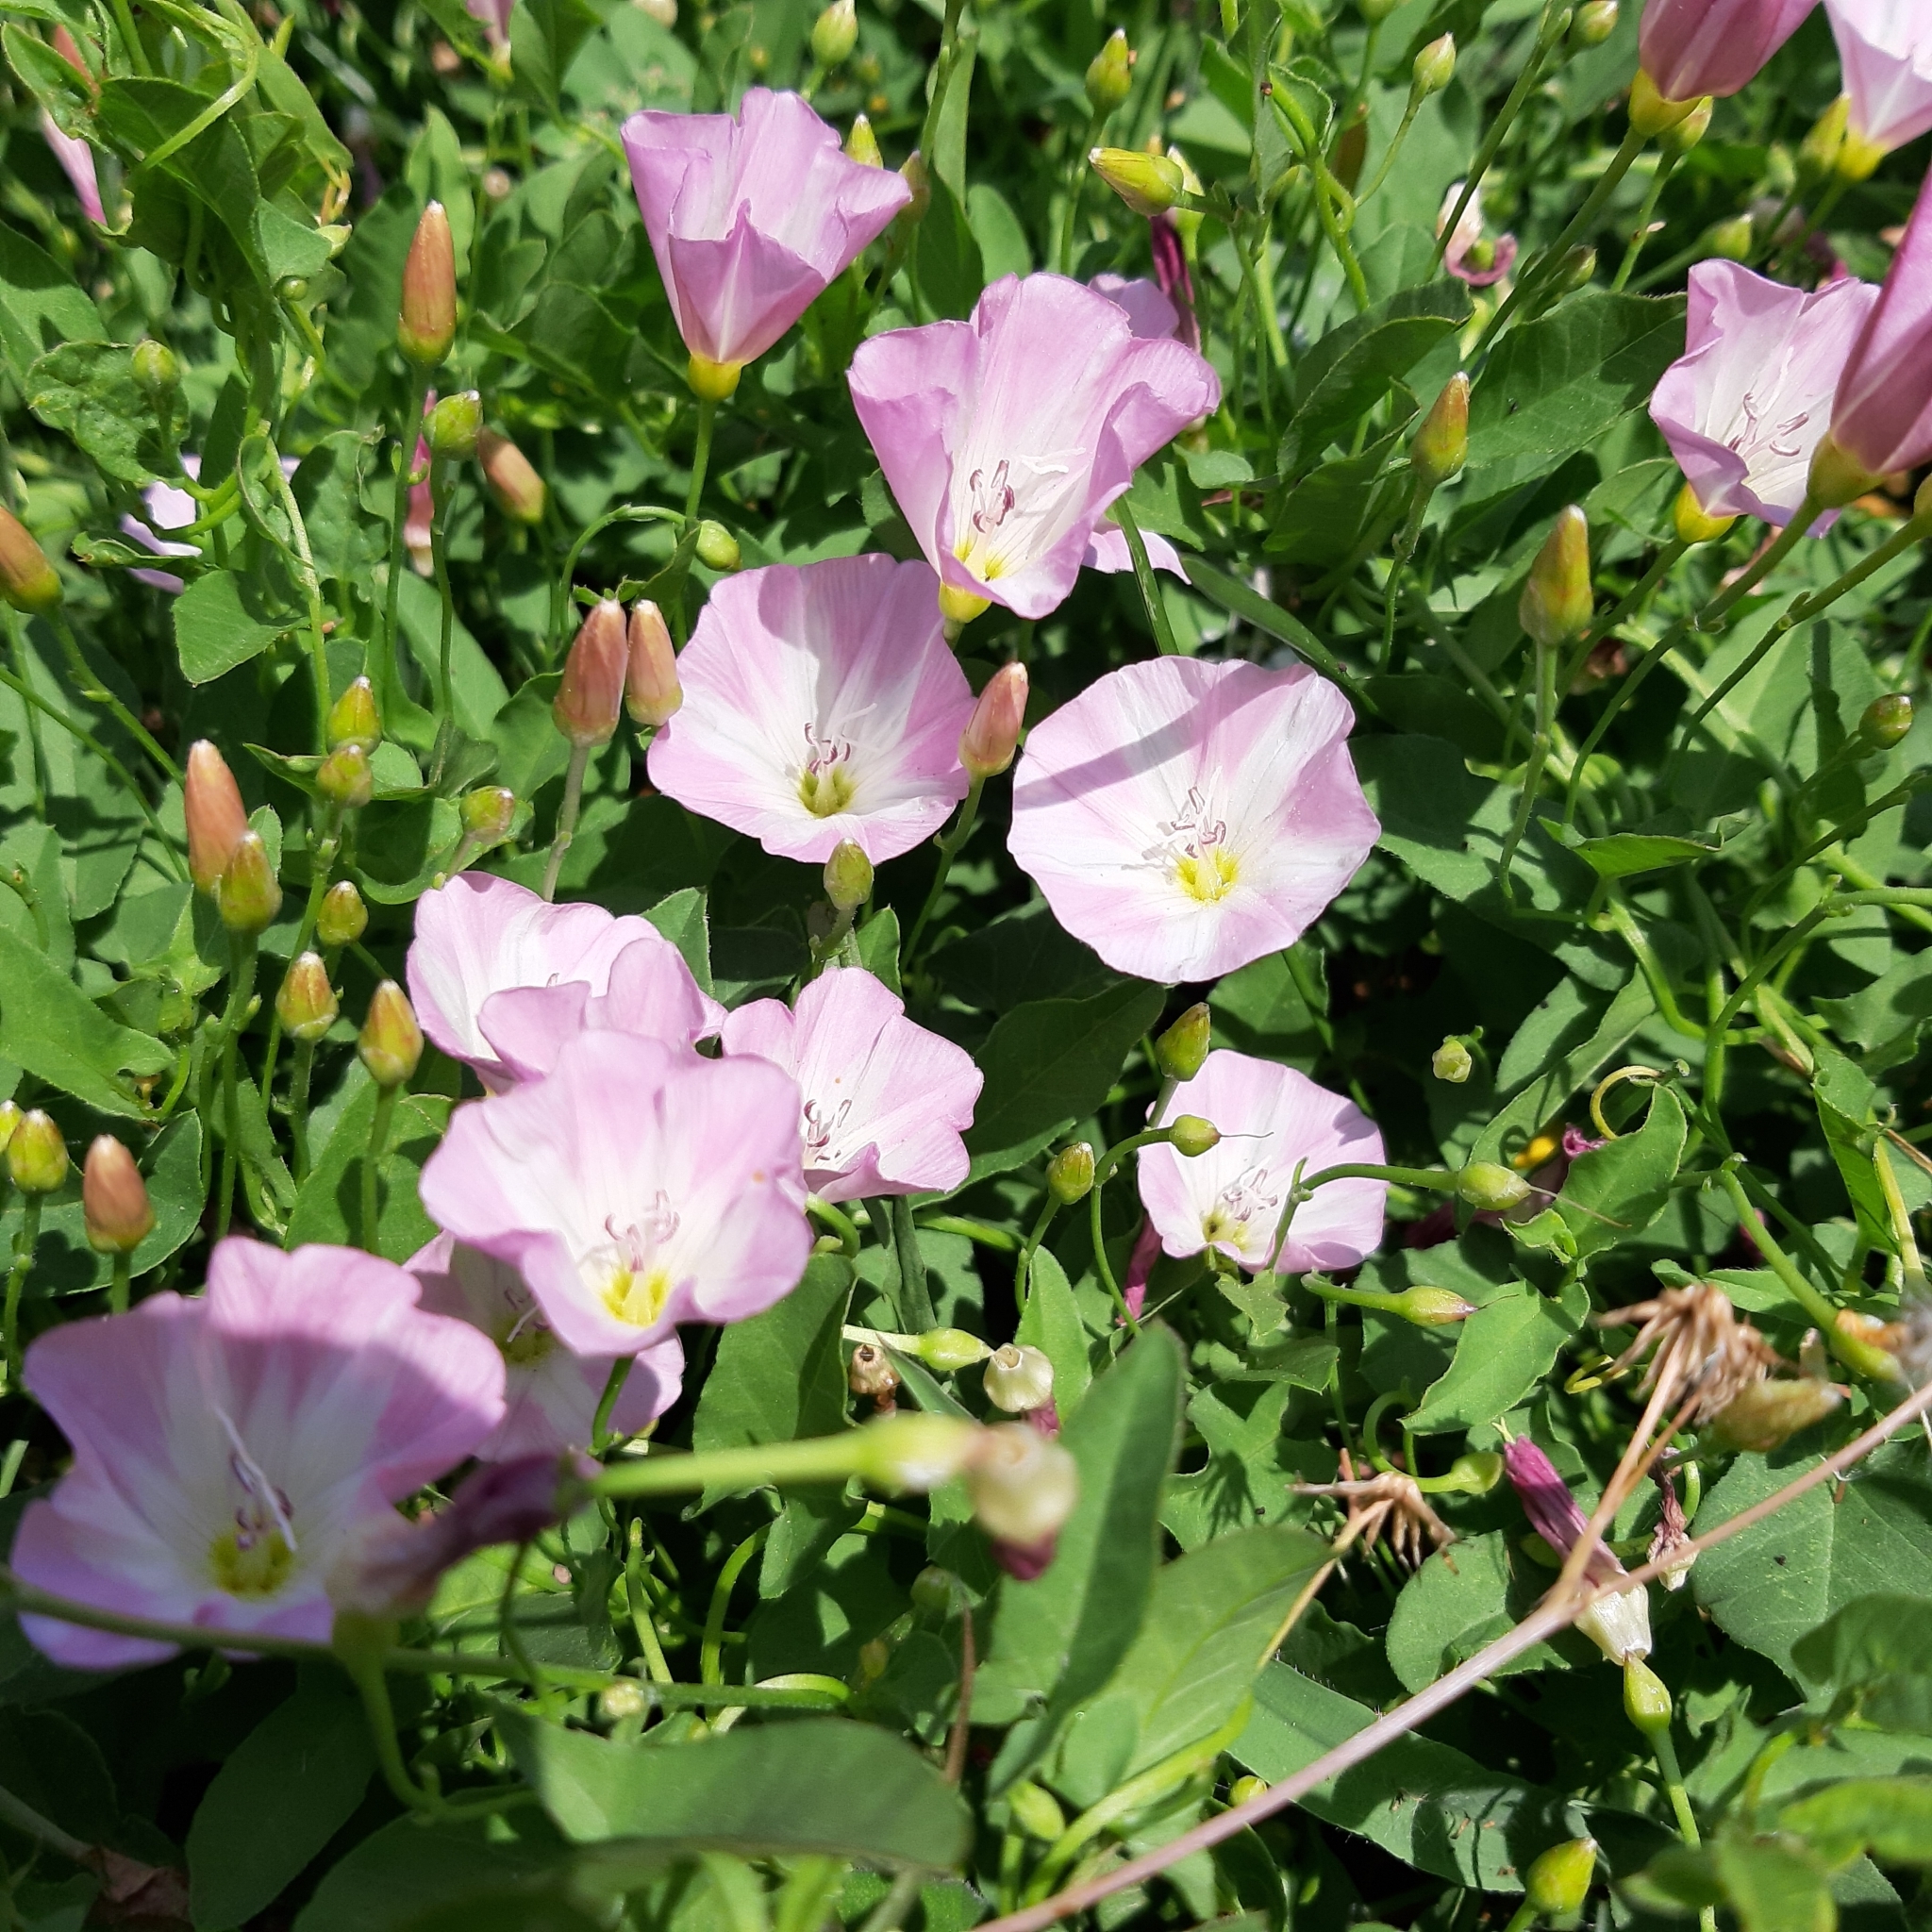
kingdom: Plantae
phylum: Tracheophyta
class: Magnoliopsida
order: Solanales
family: Convolvulaceae
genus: Convolvulus
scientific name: Convolvulus arvensis
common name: Field bindweed
